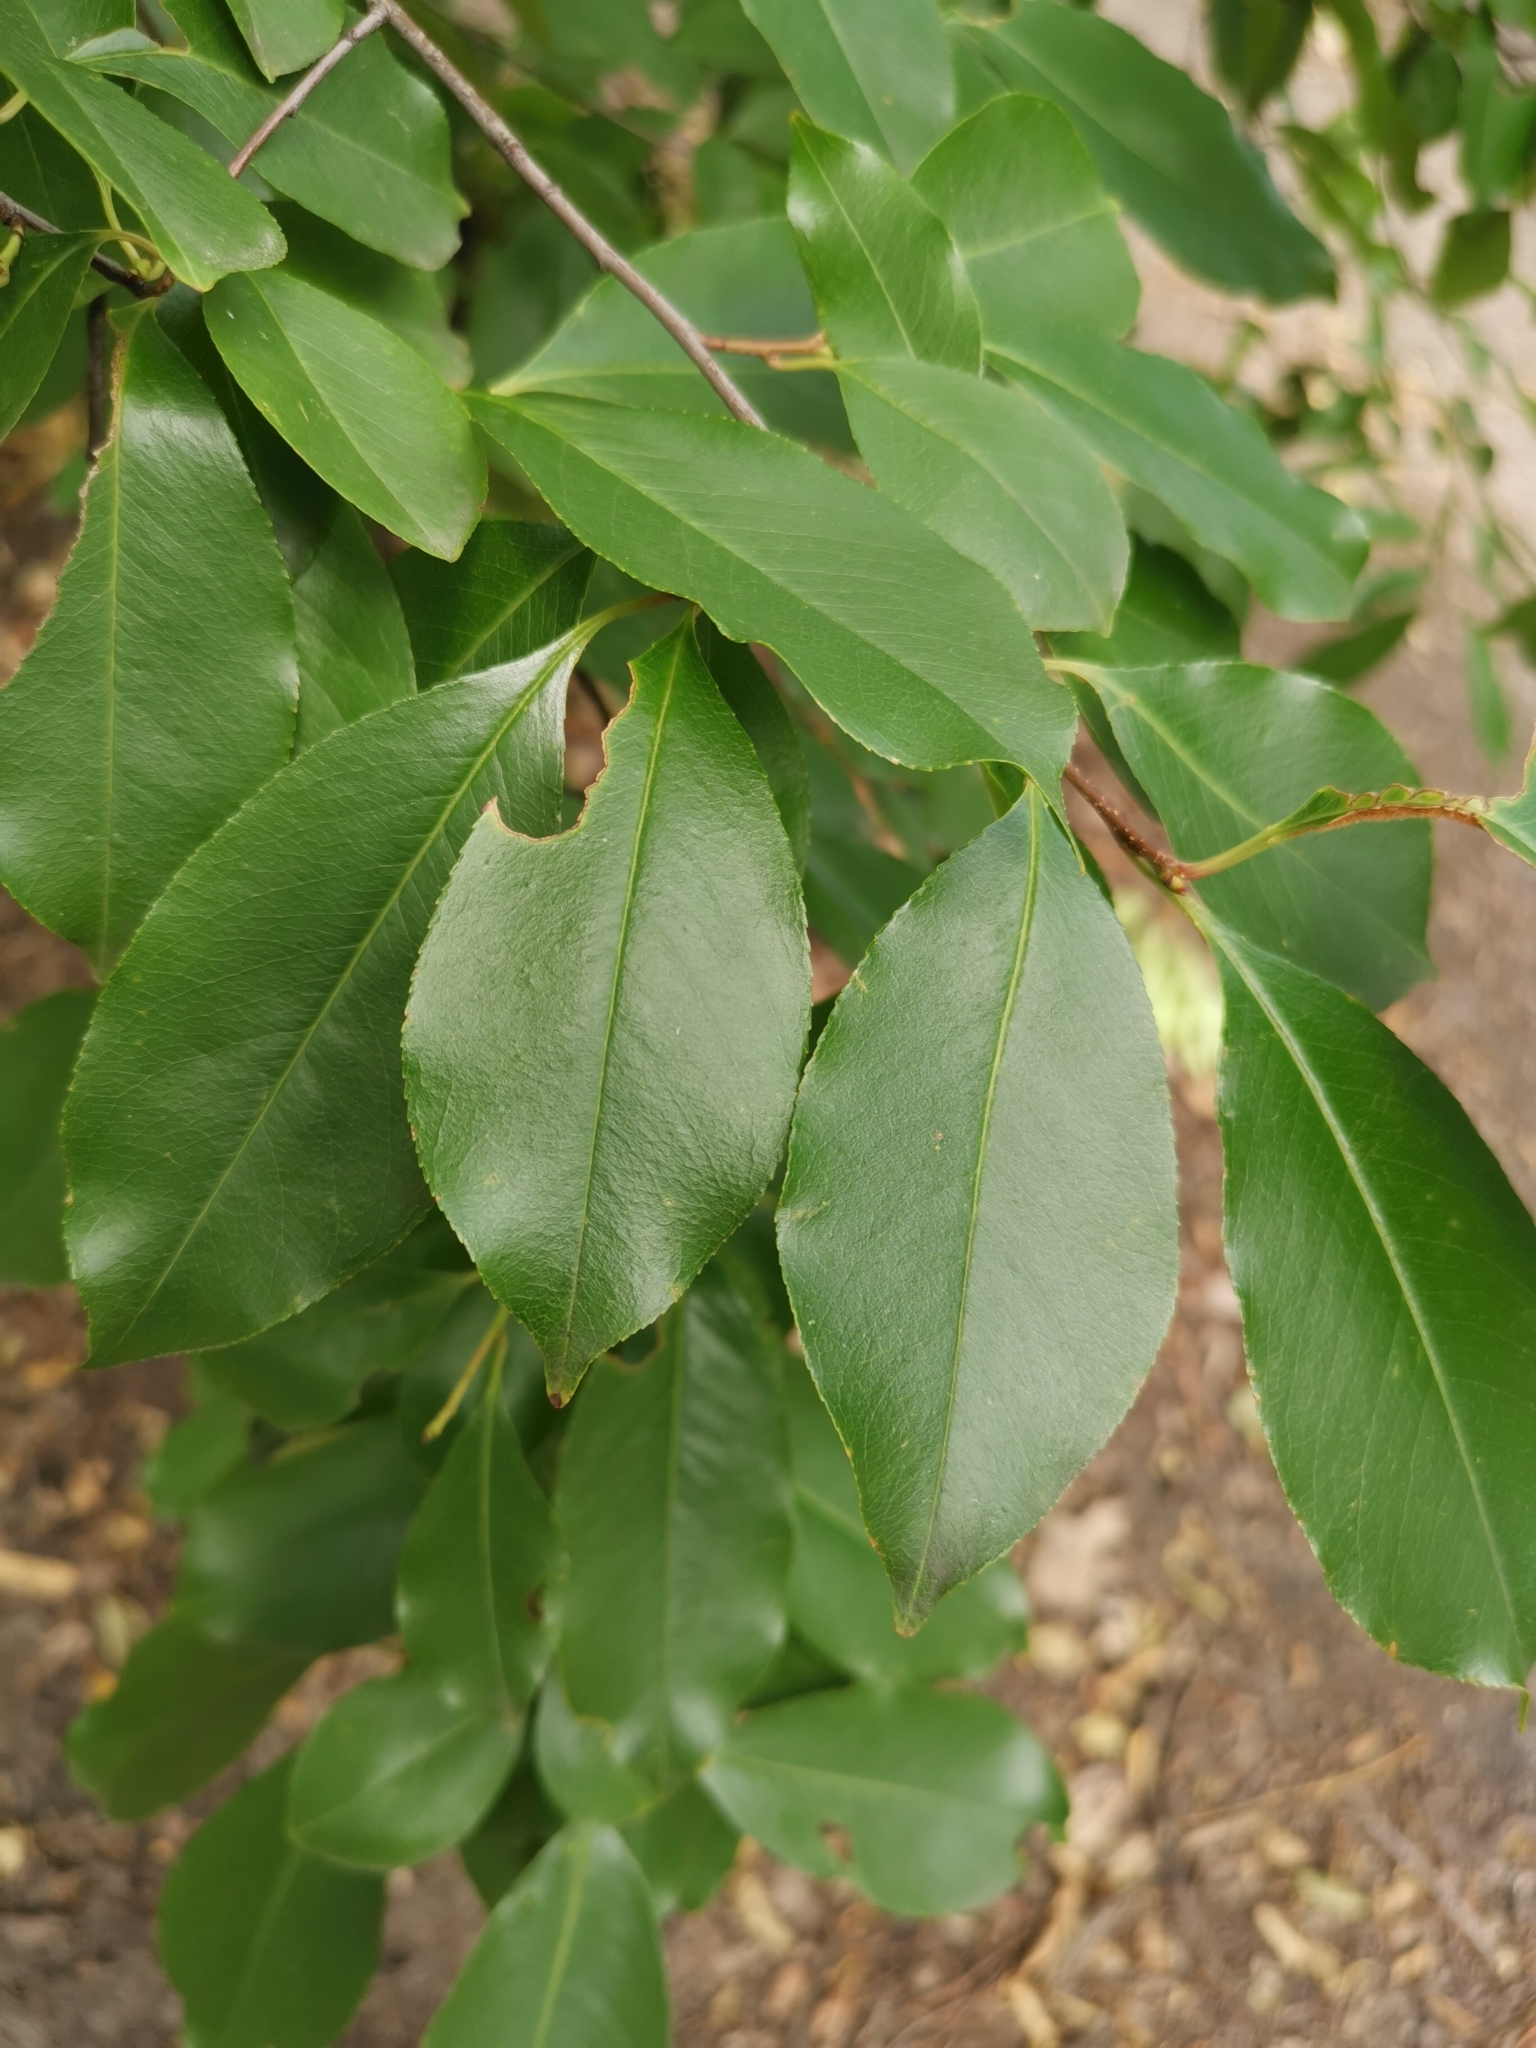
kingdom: Plantae
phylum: Tracheophyta
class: Magnoliopsida
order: Rosales
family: Rosaceae
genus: Prunus
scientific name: Prunus serotina
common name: Black cherry
